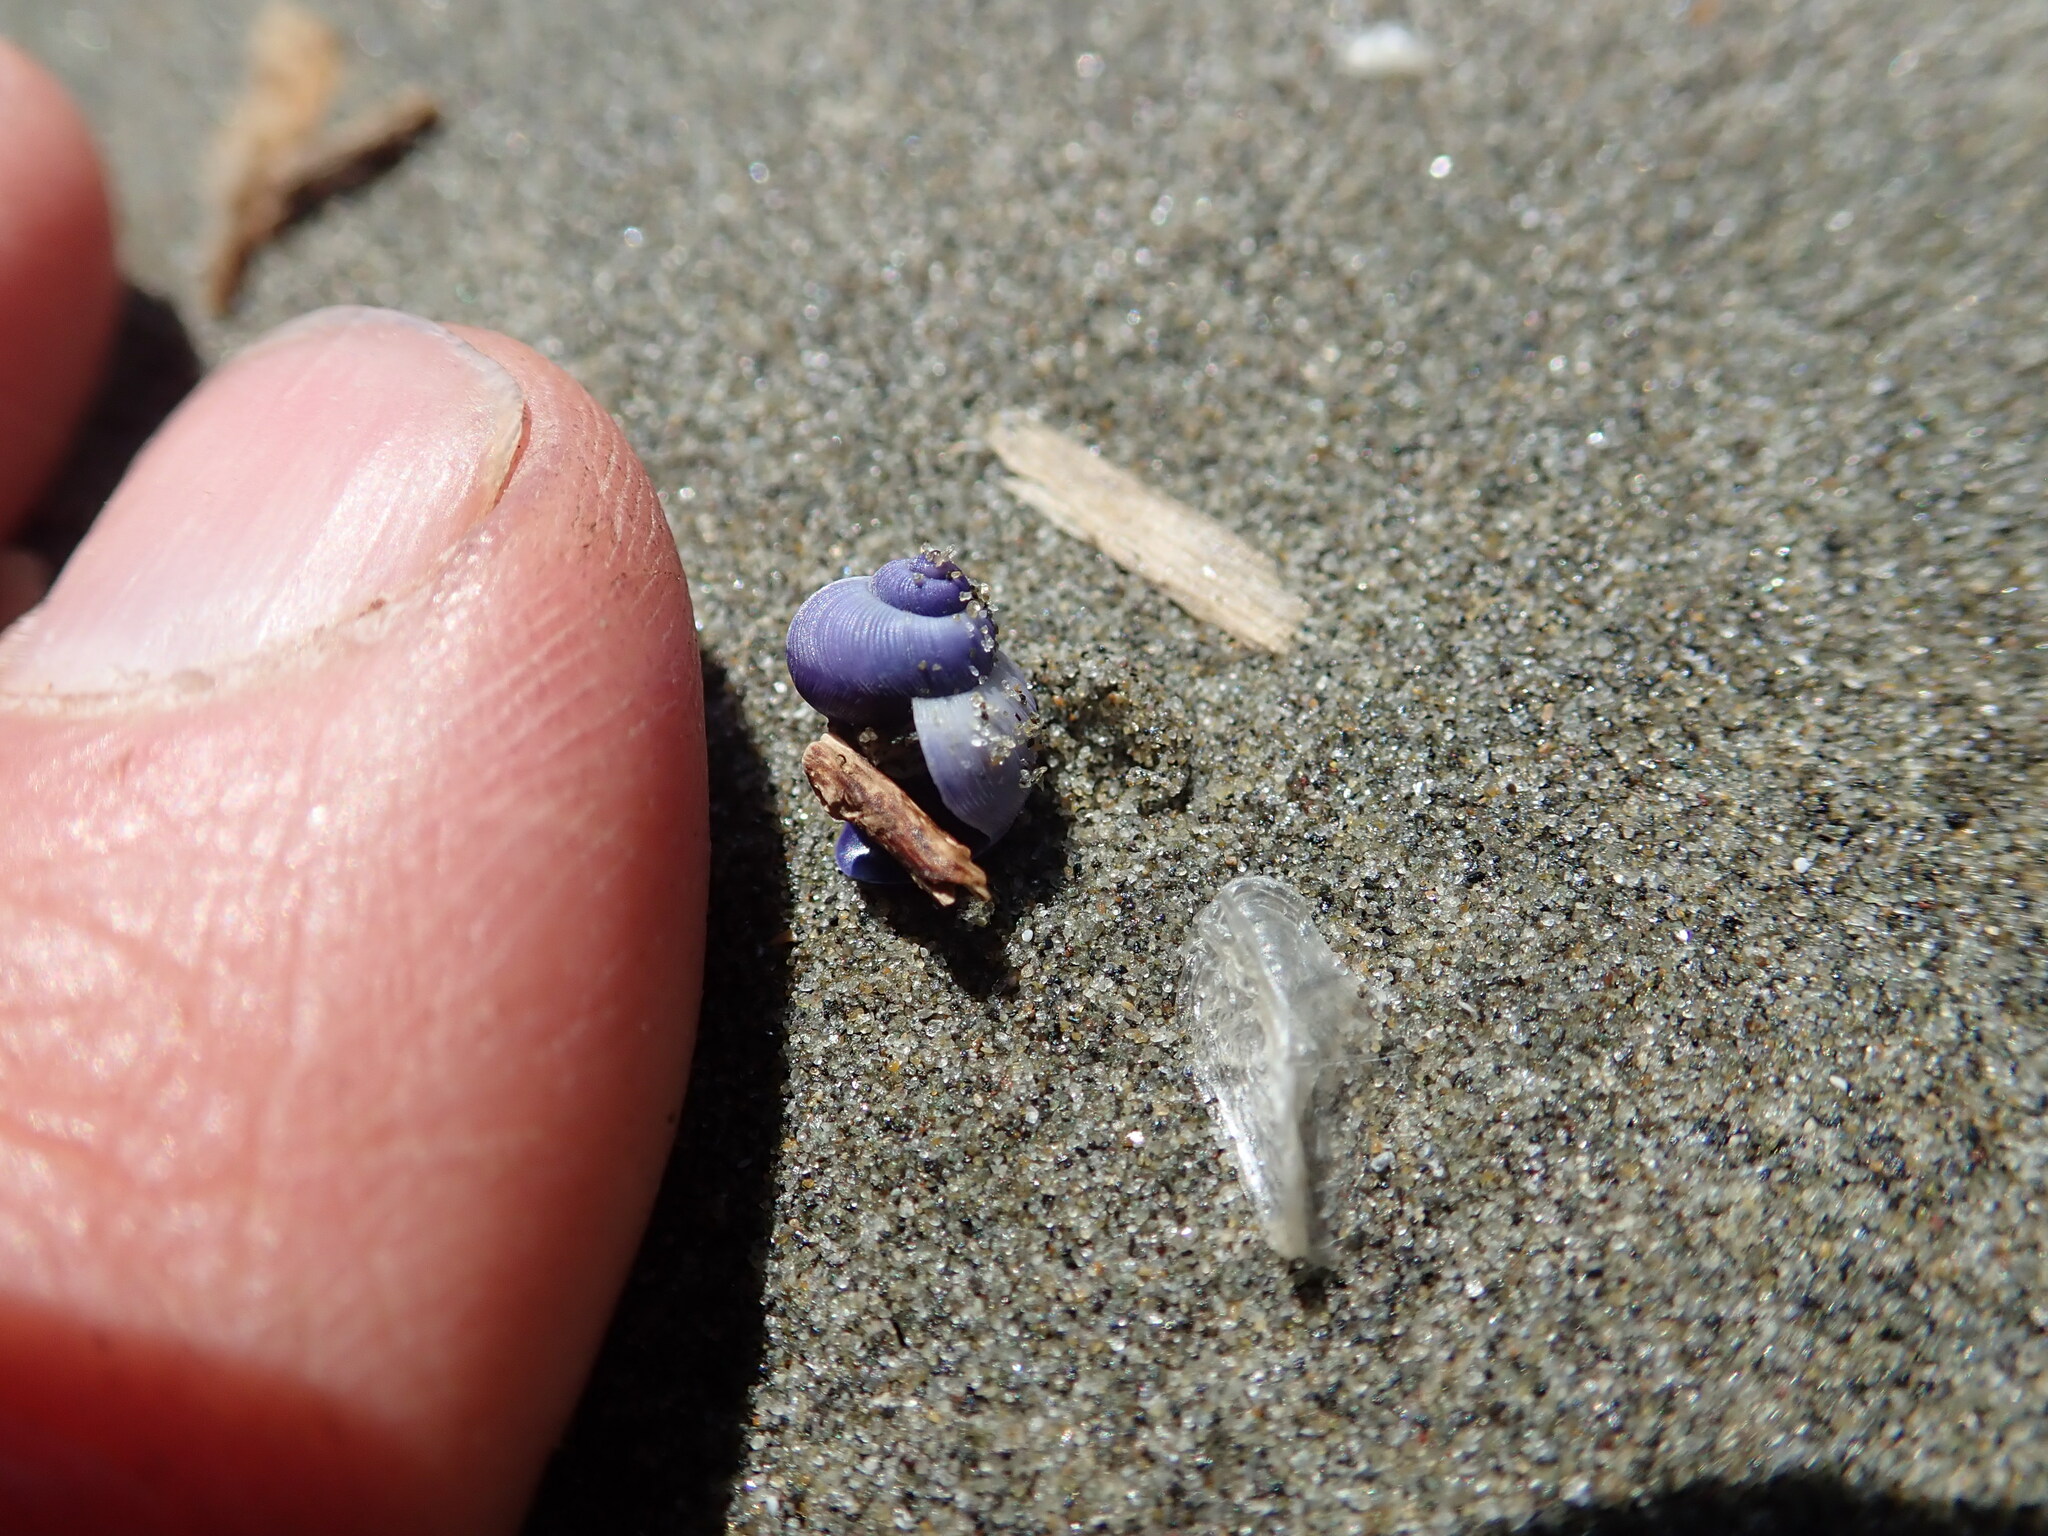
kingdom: Animalia
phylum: Mollusca
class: Gastropoda
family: Epitoniidae
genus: Janthina
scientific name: Janthina exigua
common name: Dwarf janthina
